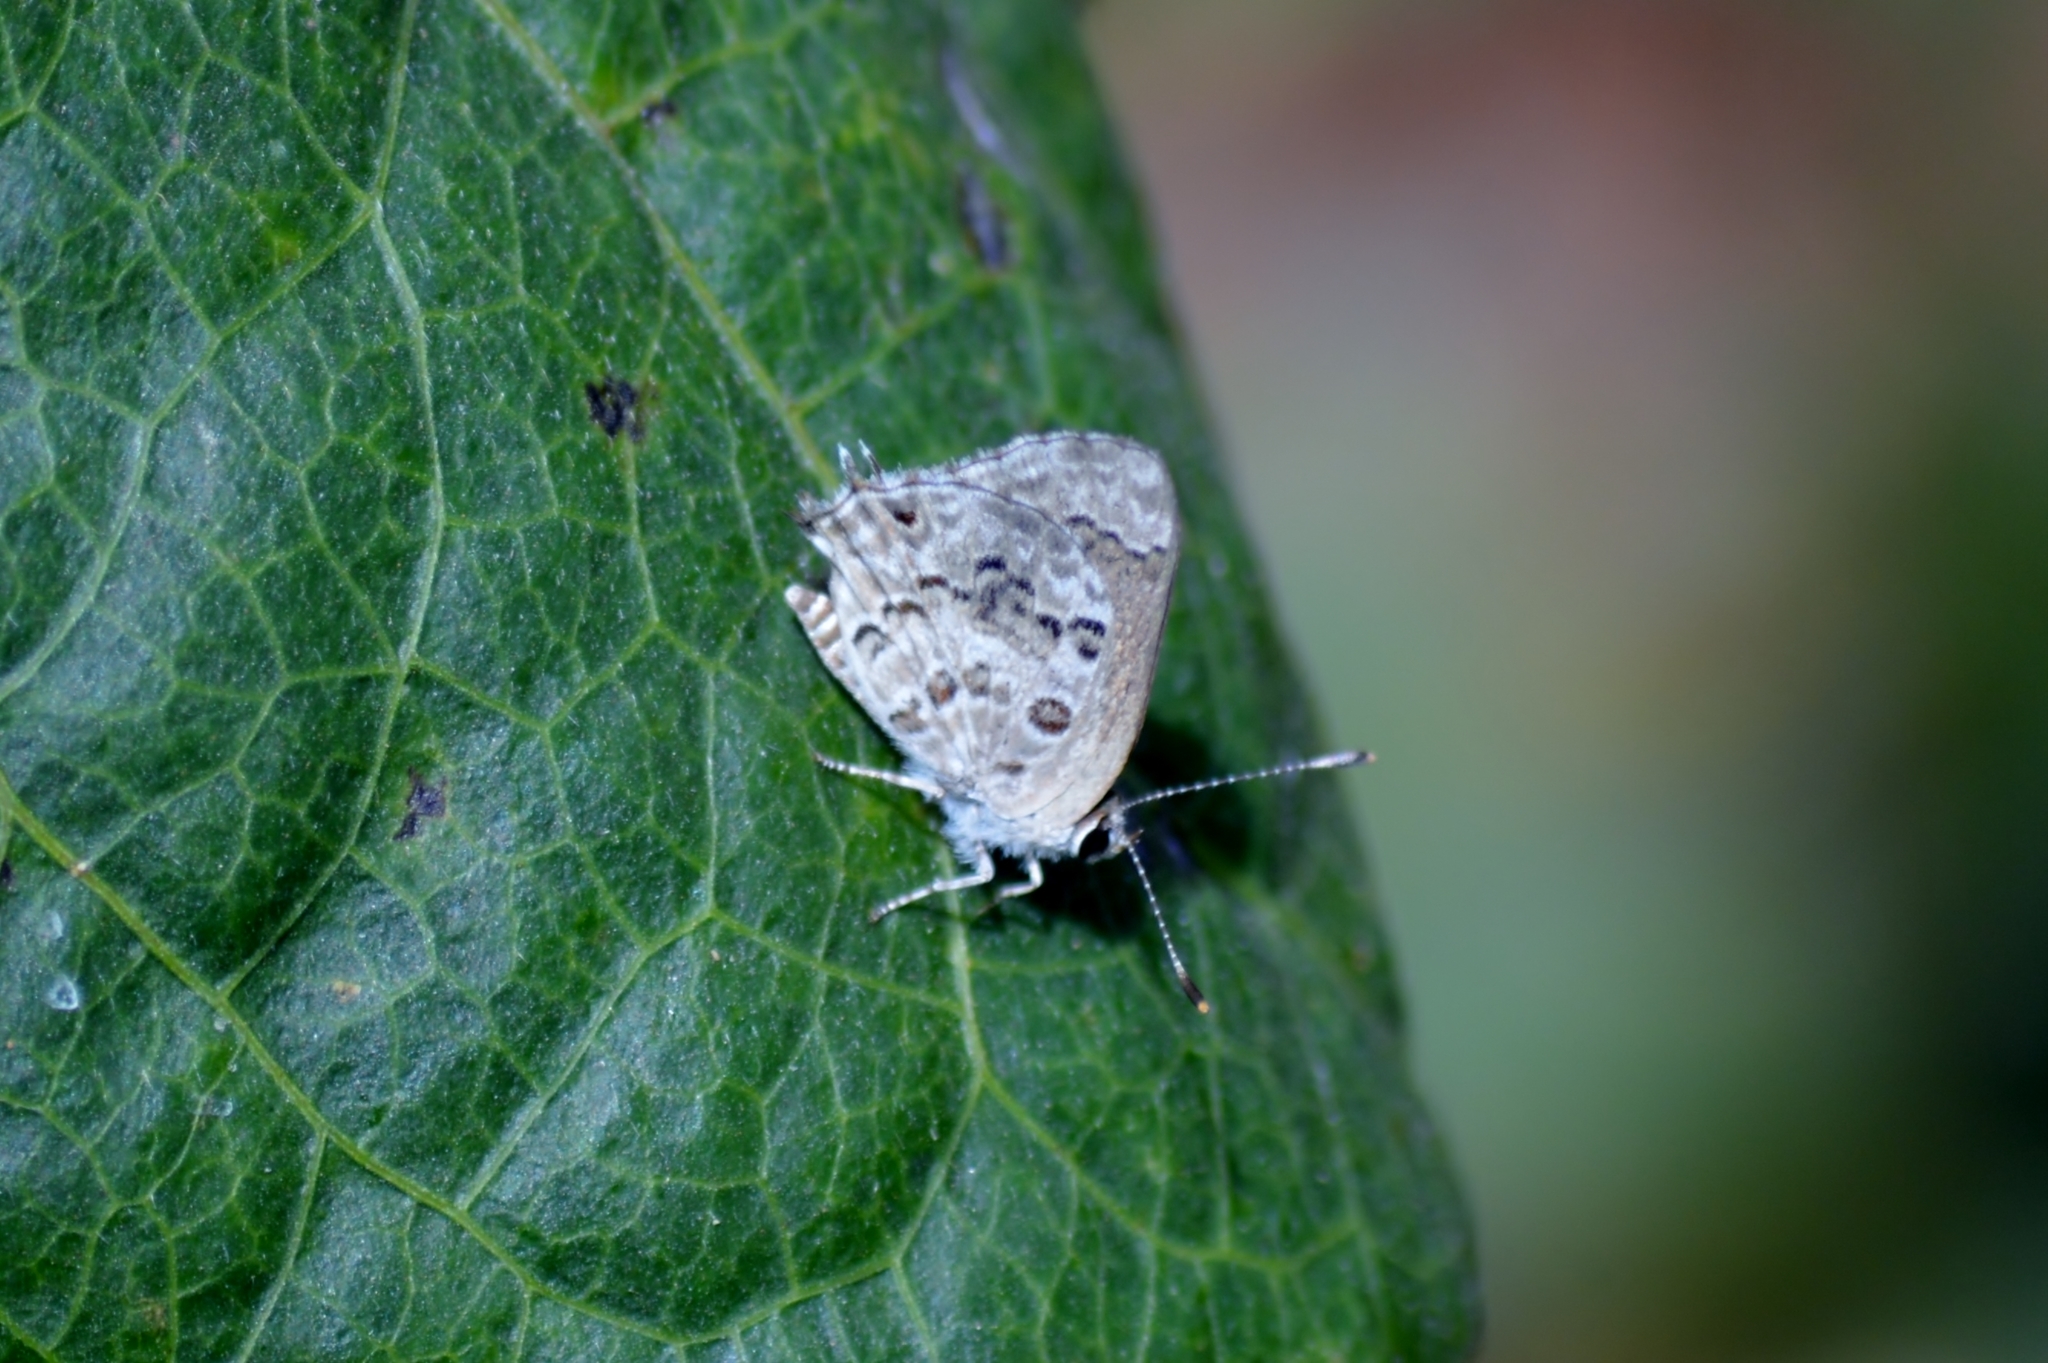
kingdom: Animalia
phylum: Arthropoda
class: Insecta
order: Lepidoptera
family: Lycaenidae
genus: Strymon
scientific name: Strymon astiocha
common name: Gray-spotted scrub-hairstreak
